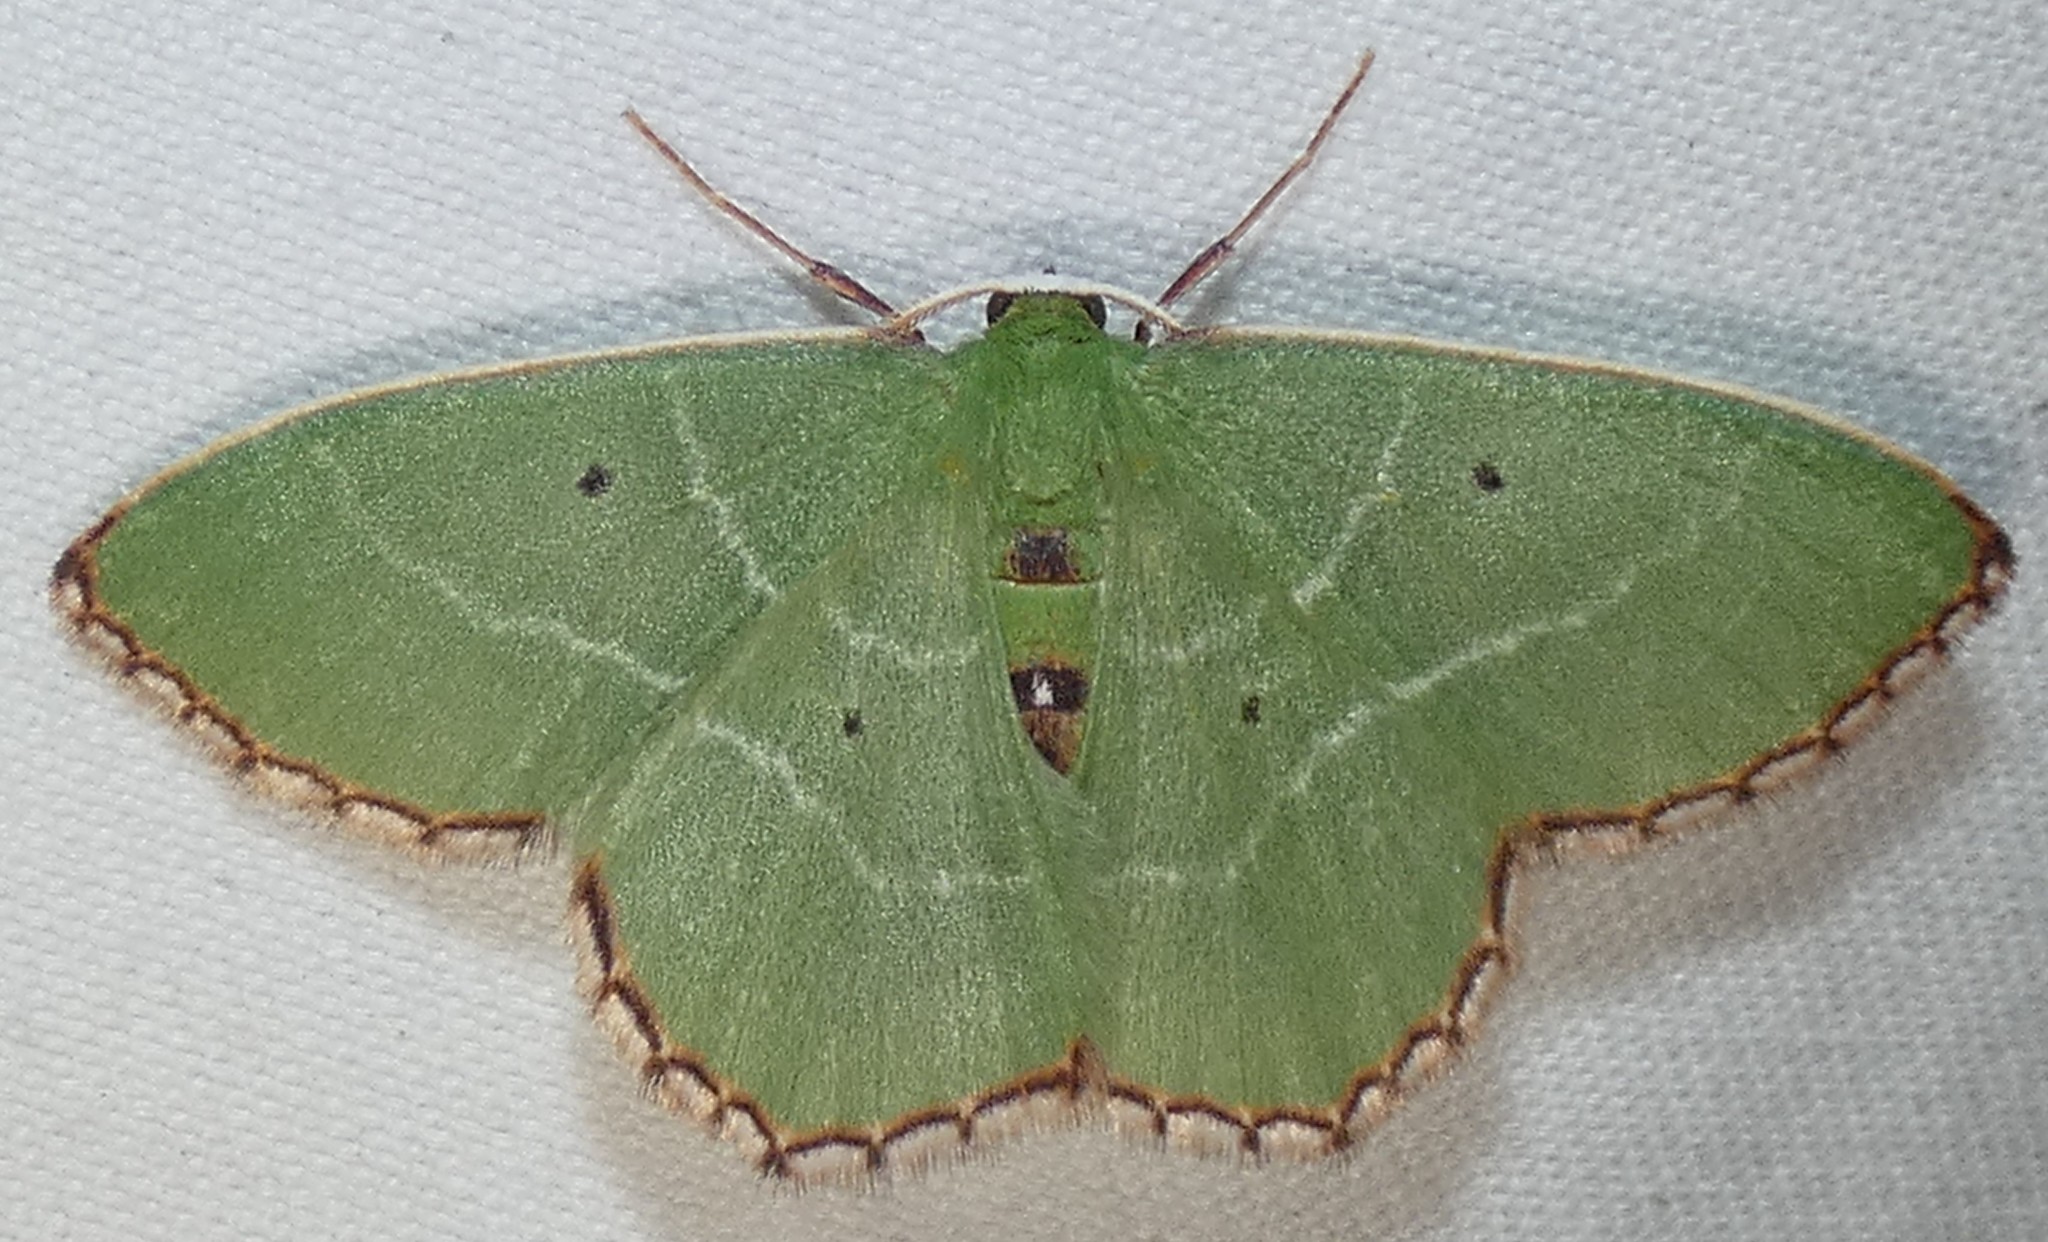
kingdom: Animalia
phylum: Arthropoda
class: Insecta
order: Lepidoptera
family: Geometridae
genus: Nemoria
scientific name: Nemoria saturiba
